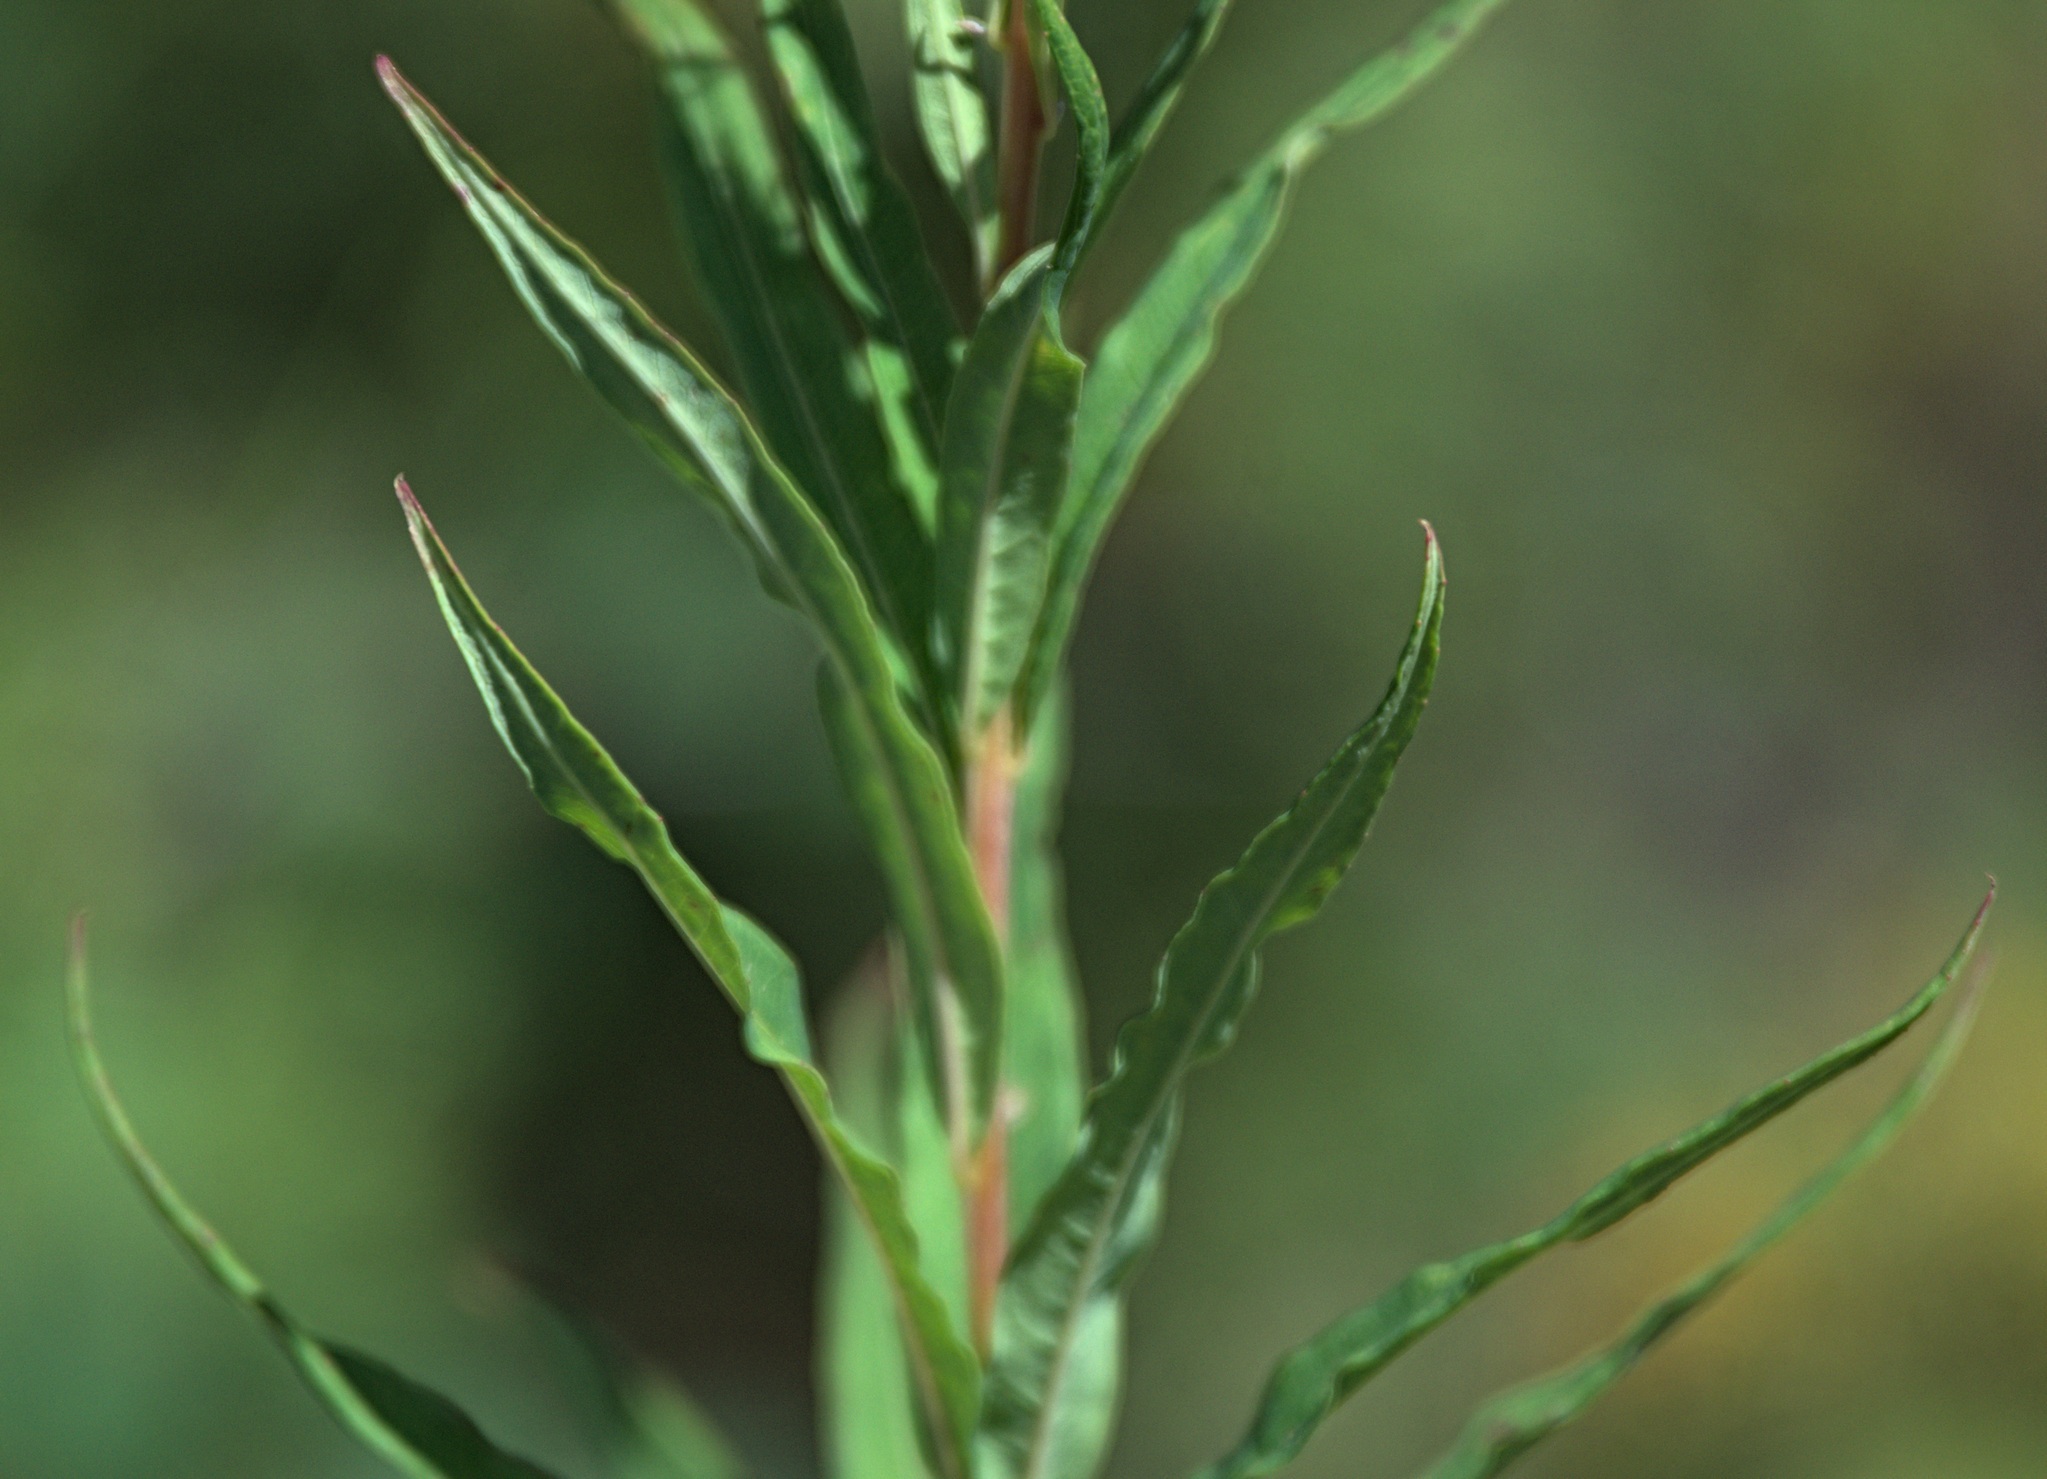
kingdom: Plantae
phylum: Tracheophyta
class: Magnoliopsida
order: Myrtales
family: Onagraceae
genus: Chamaenerion
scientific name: Chamaenerion angustifolium
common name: Fireweed
